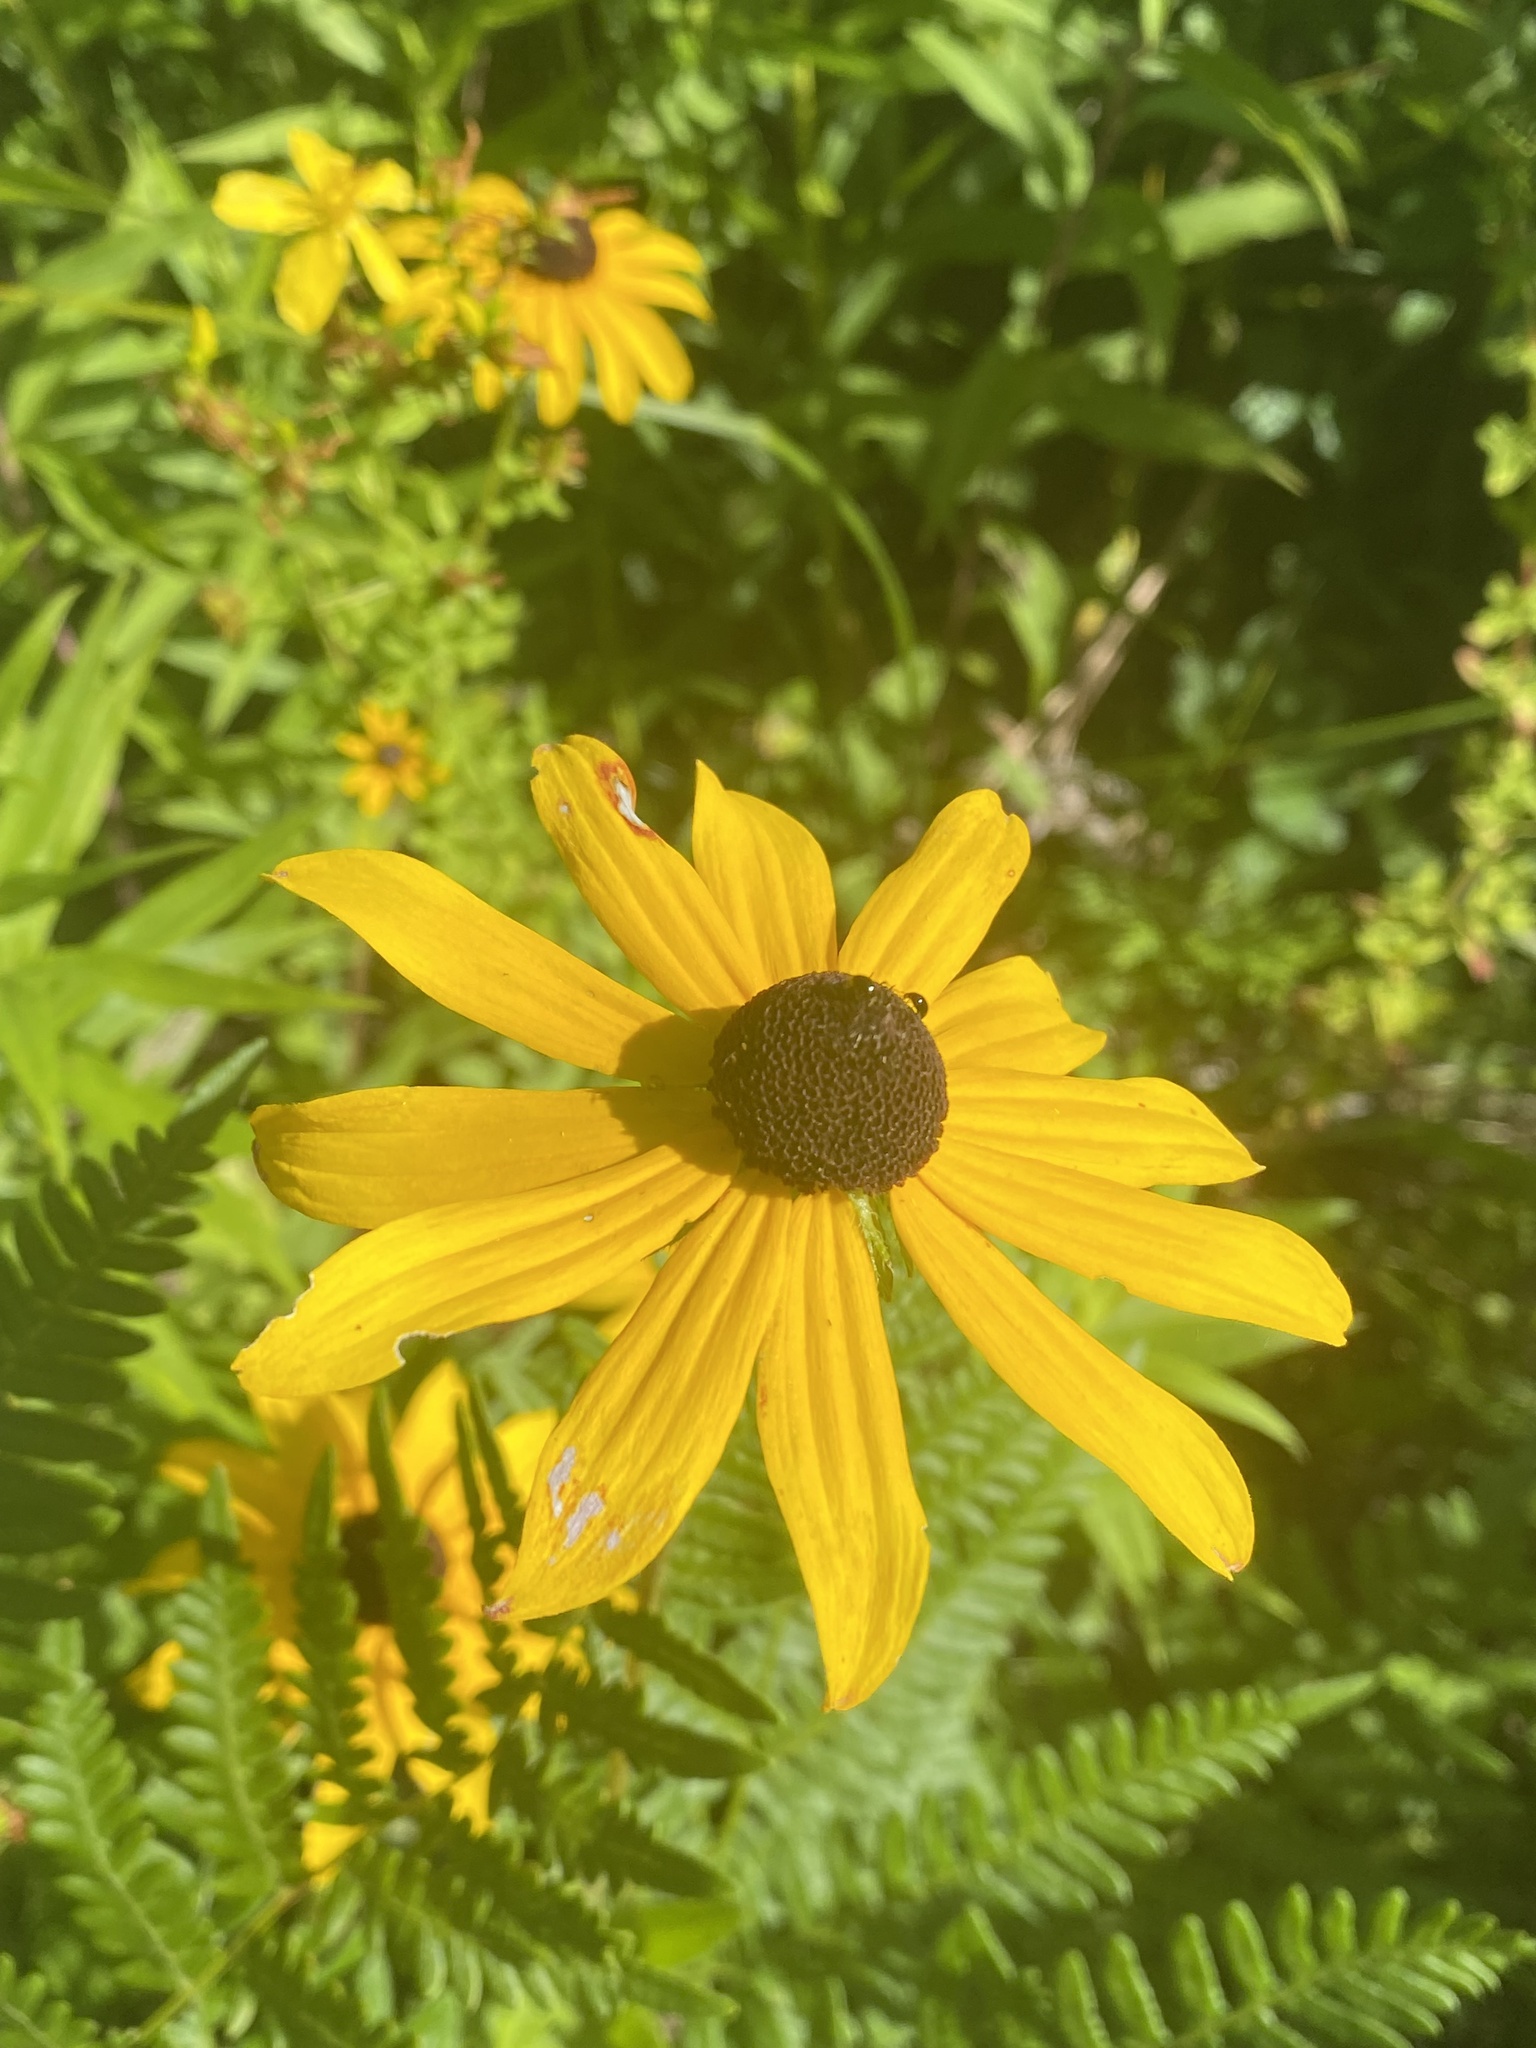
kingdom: Plantae
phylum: Tracheophyta
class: Magnoliopsida
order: Asterales
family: Asteraceae
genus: Rudbeckia
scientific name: Rudbeckia hirta
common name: Black-eyed-susan
